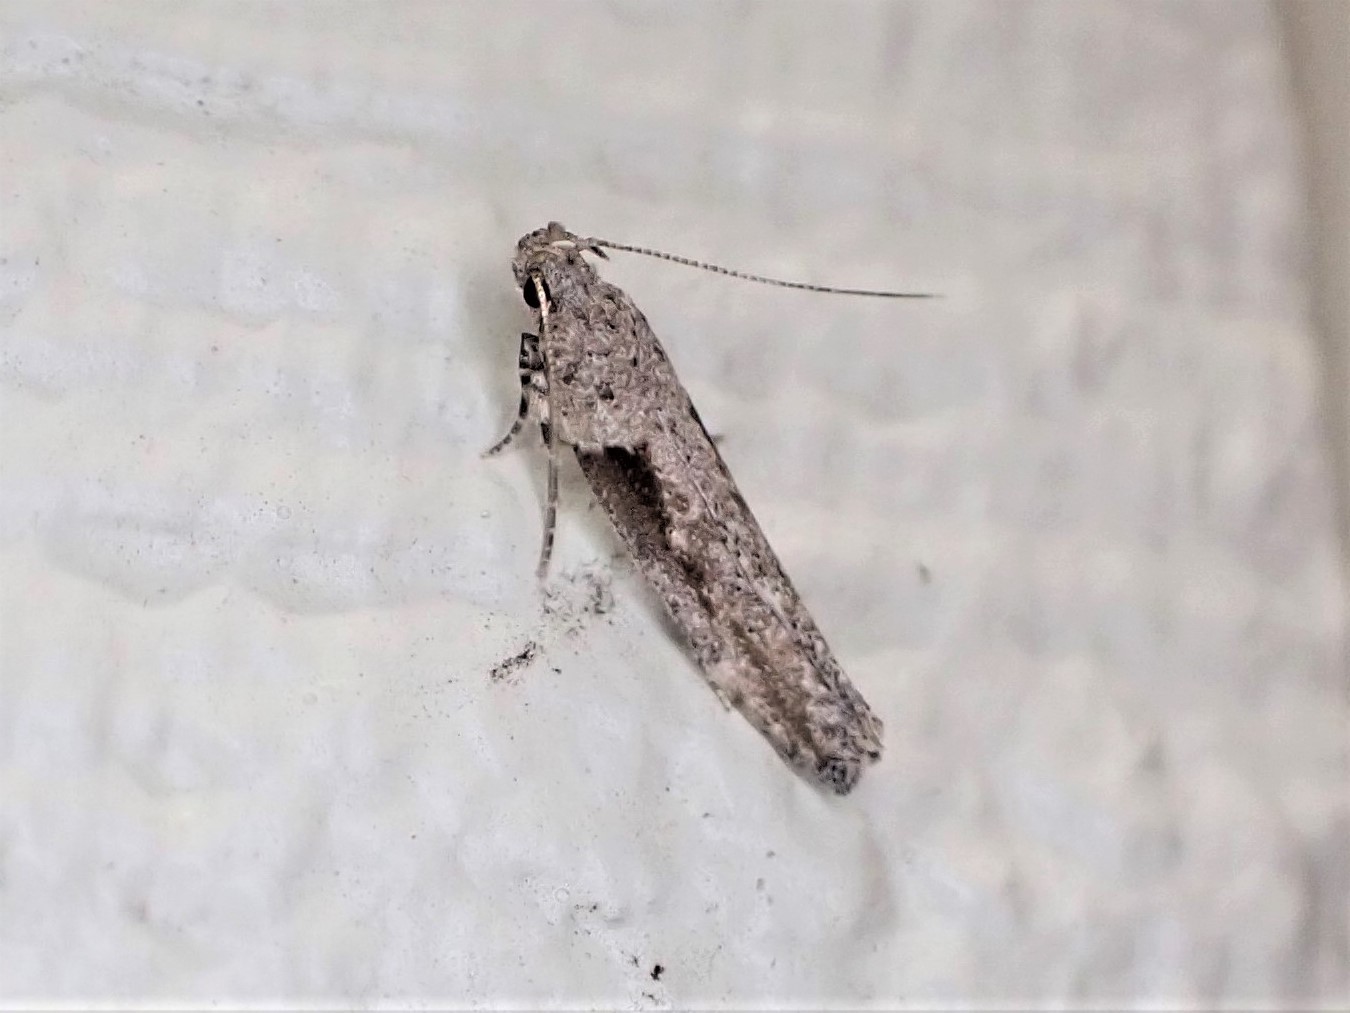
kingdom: Animalia
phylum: Arthropoda
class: Insecta
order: Lepidoptera
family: Gelechiidae
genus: Symmetrischema
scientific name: Symmetrischema tangolias
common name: Moth
